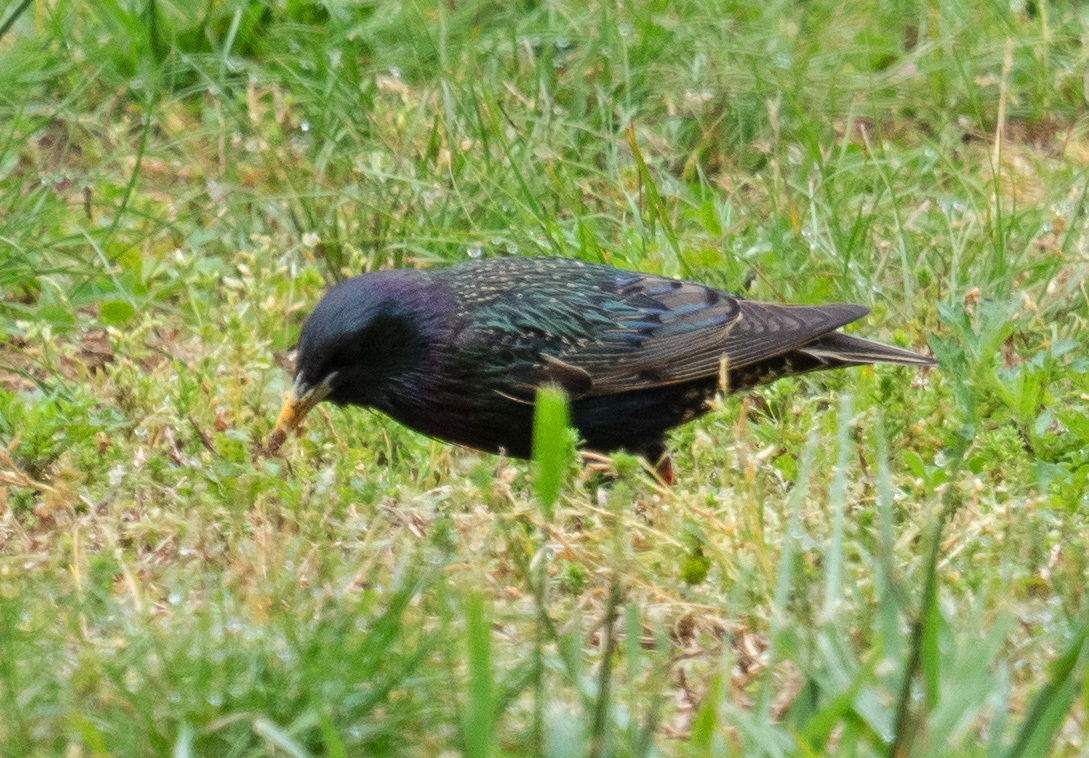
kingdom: Animalia
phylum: Chordata
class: Aves
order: Passeriformes
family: Sturnidae
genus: Sturnus
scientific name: Sturnus vulgaris
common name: Common starling
